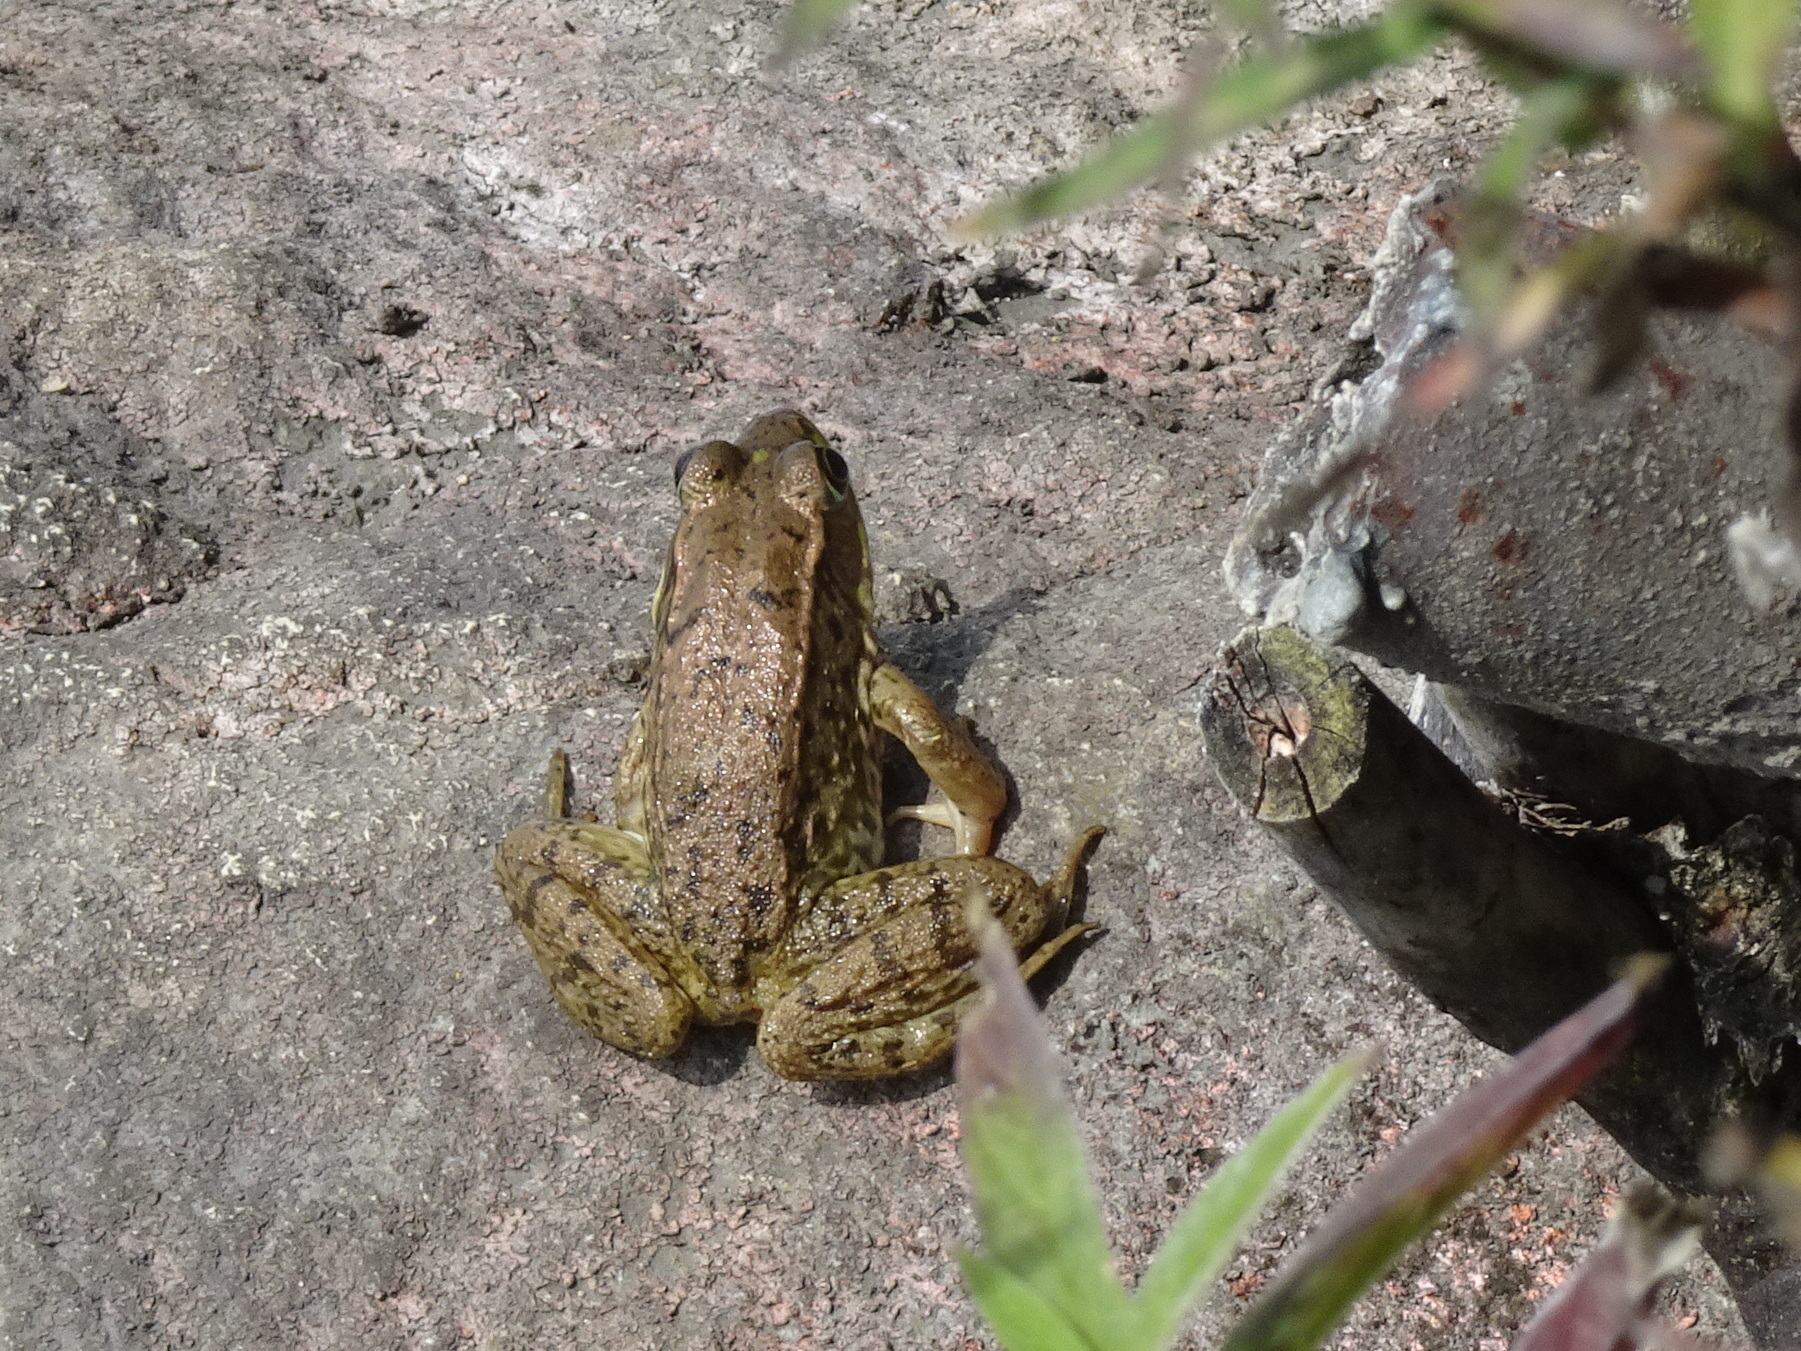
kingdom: Animalia
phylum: Chordata
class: Amphibia
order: Anura
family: Ranidae
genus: Lithobates
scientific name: Lithobates clamitans
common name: Green frog
